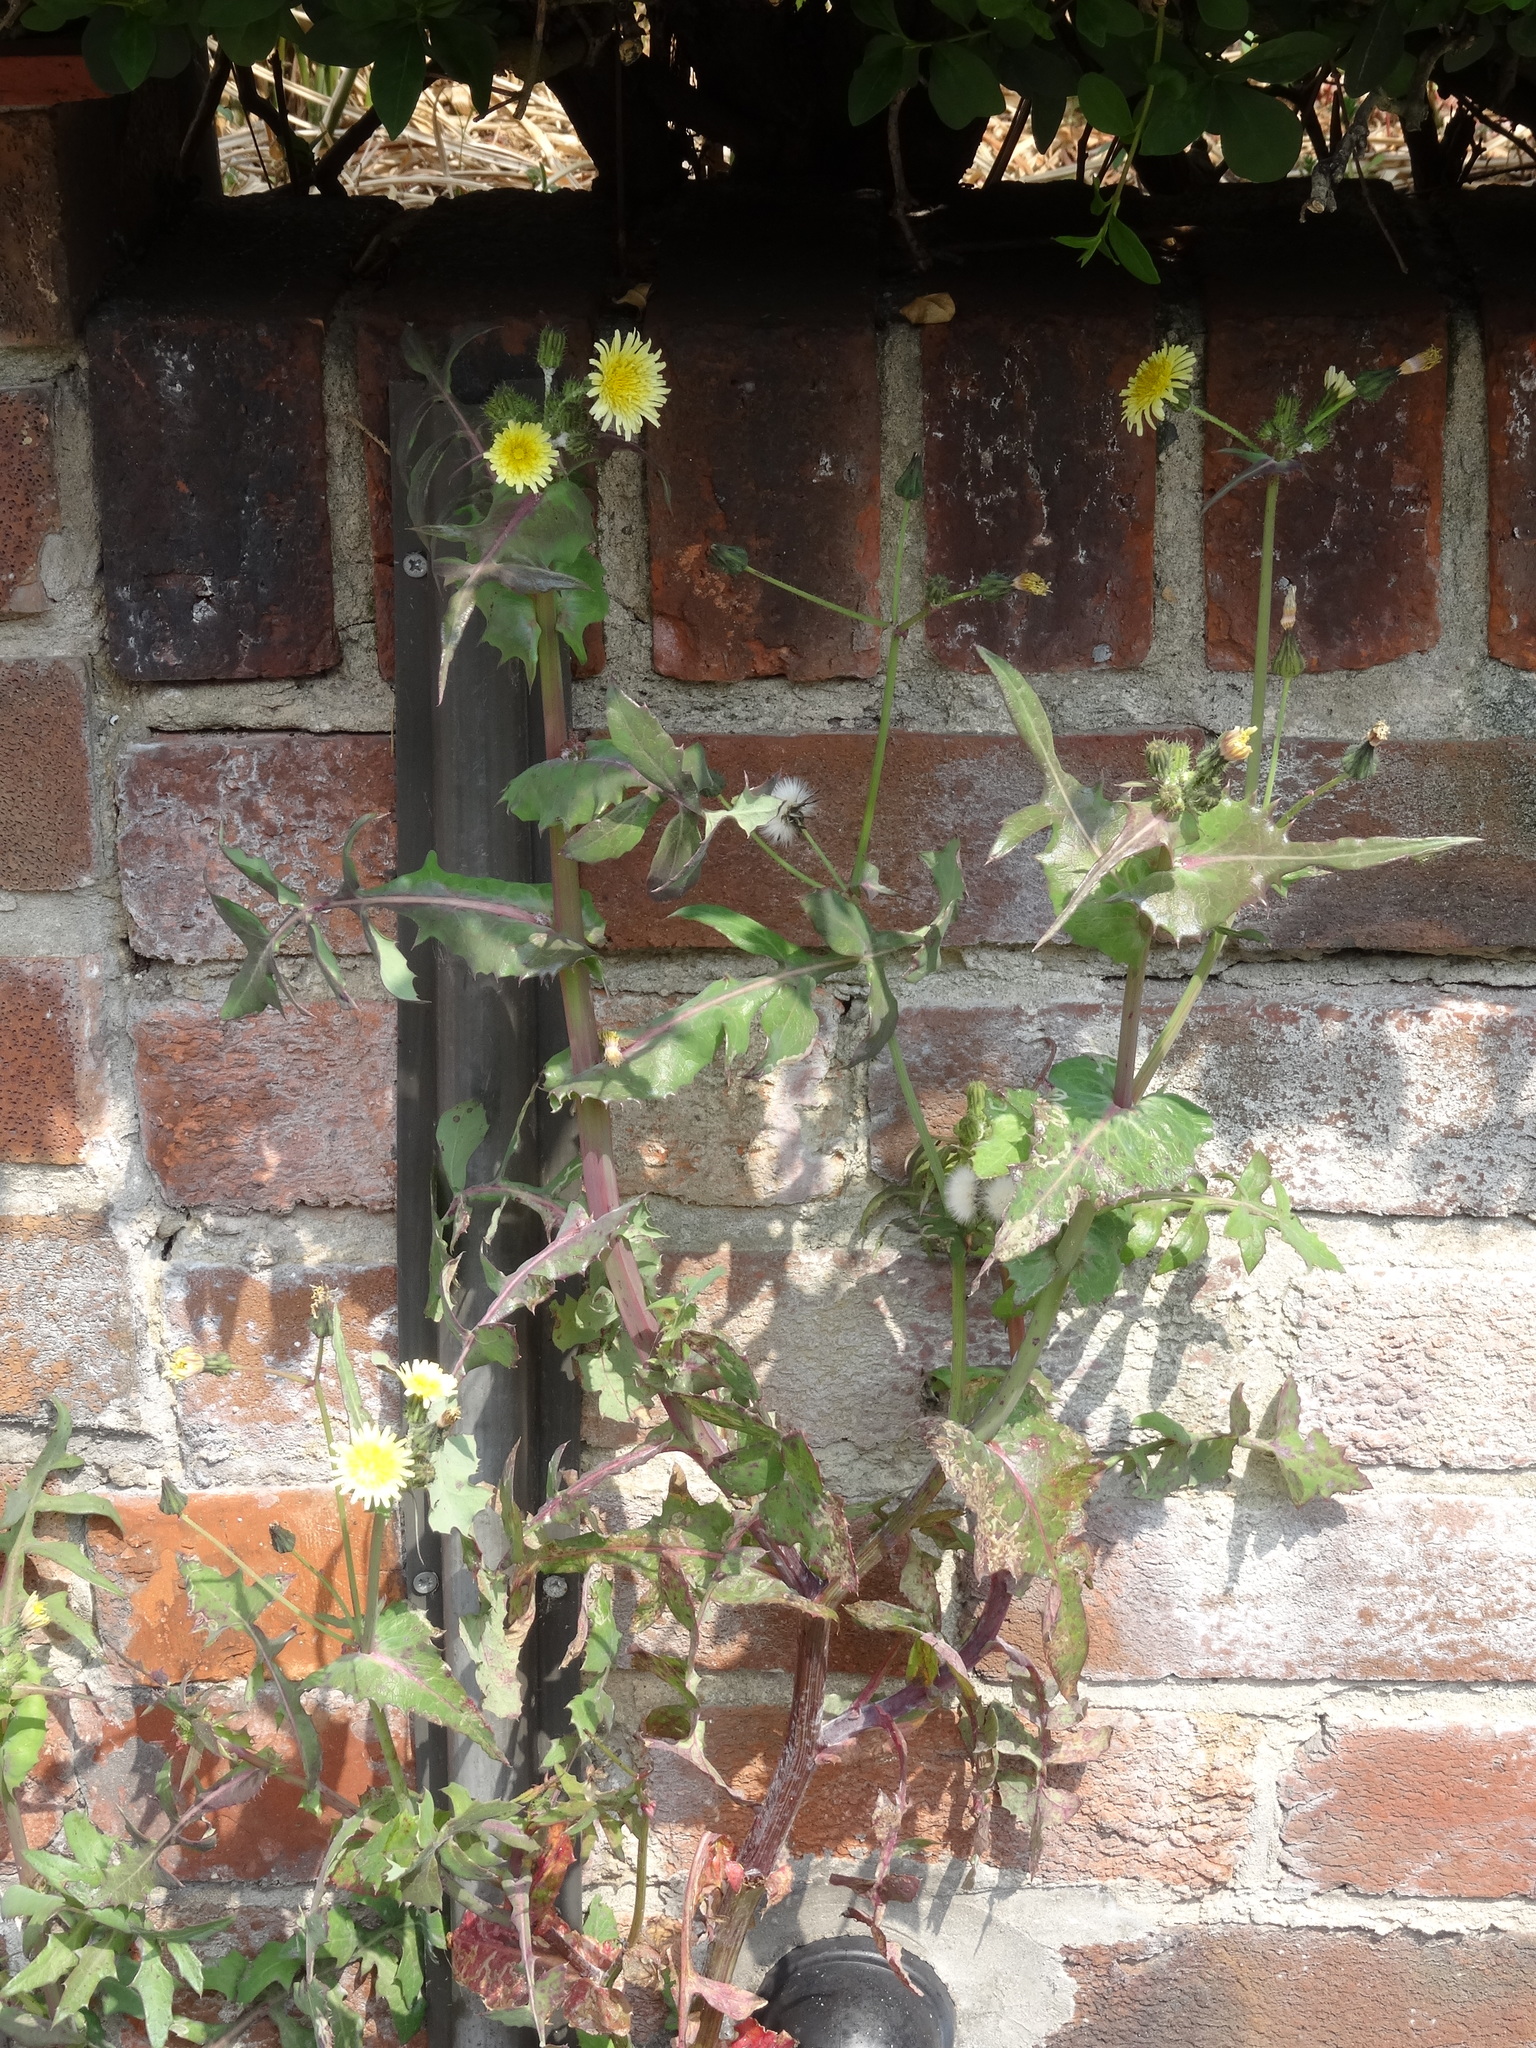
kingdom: Plantae
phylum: Tracheophyta
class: Magnoliopsida
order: Asterales
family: Asteraceae
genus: Sonchus
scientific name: Sonchus oleraceus
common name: Common sowthistle
